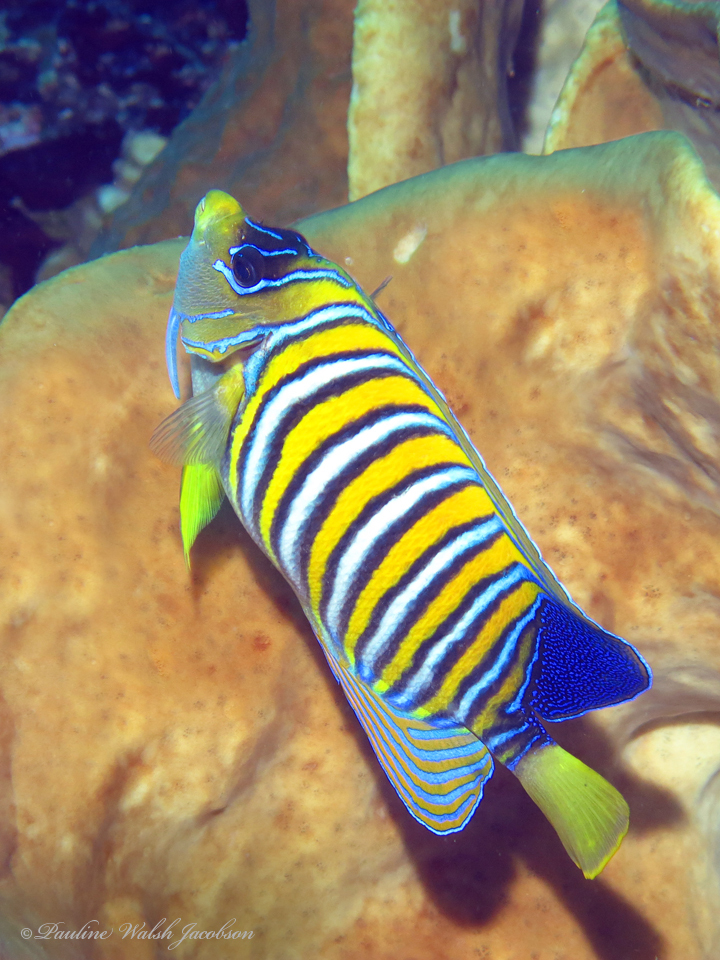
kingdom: Animalia
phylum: Chordata
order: Perciformes
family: Pomacanthidae
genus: Pygoplites
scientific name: Pygoplites diacanthus
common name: Regal angelfish
